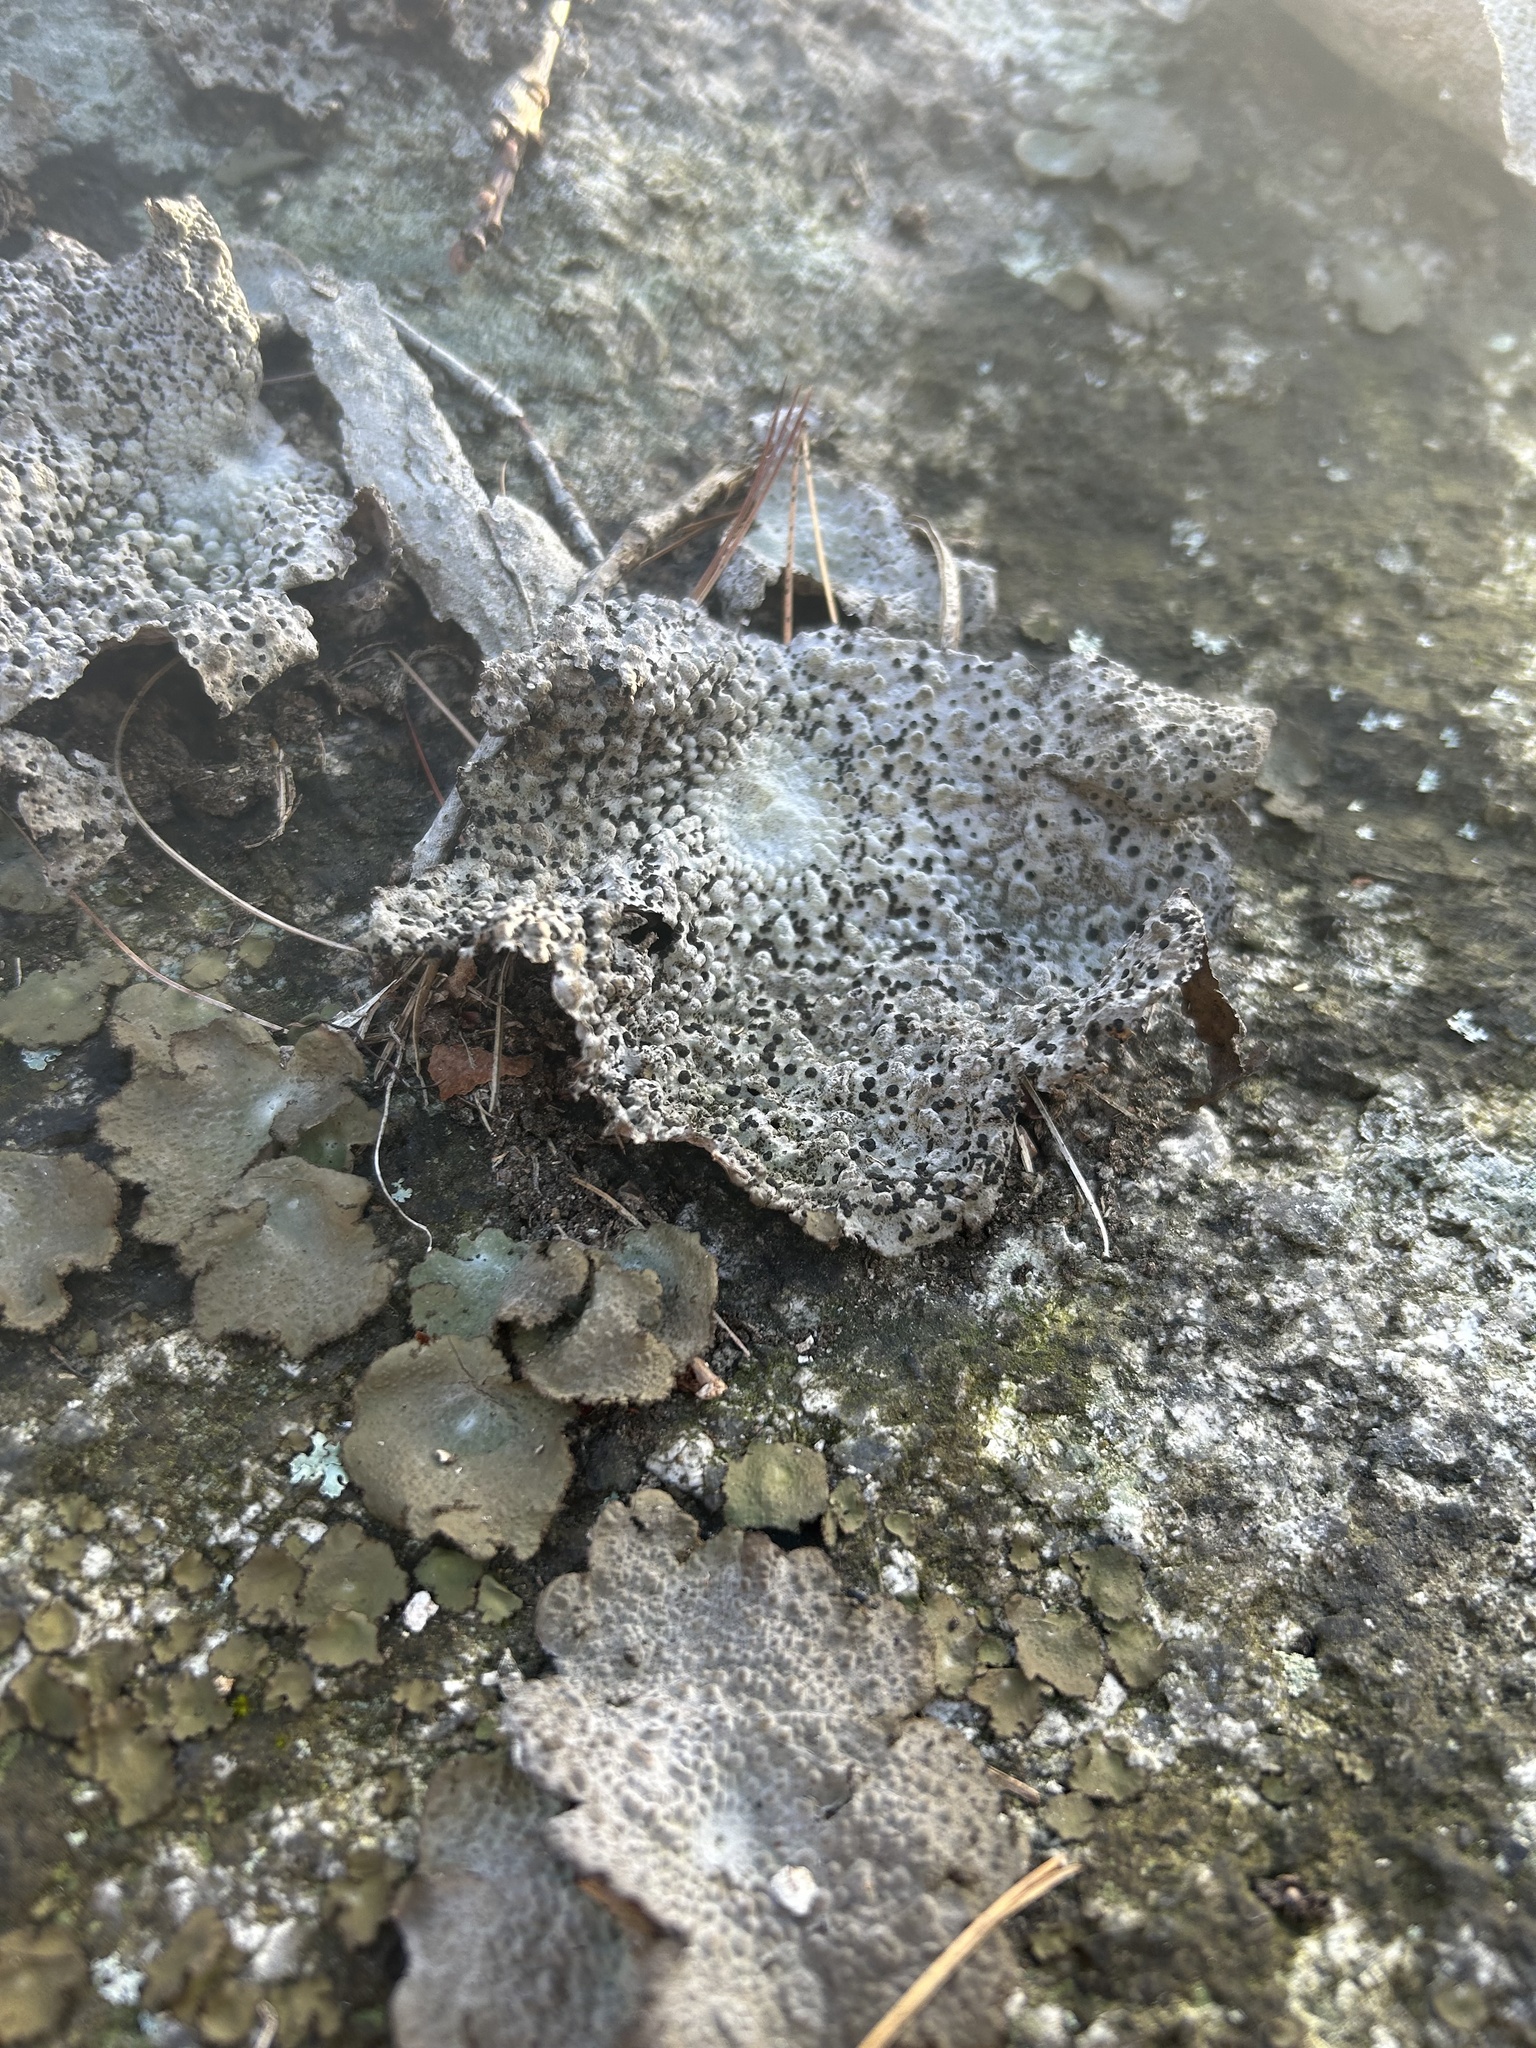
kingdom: Fungi
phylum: Ascomycota
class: Lecanoromycetes
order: Umbilicariales
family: Umbilicariaceae
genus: Lasallia
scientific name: Lasallia papulosa
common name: Common toadskin lichen
